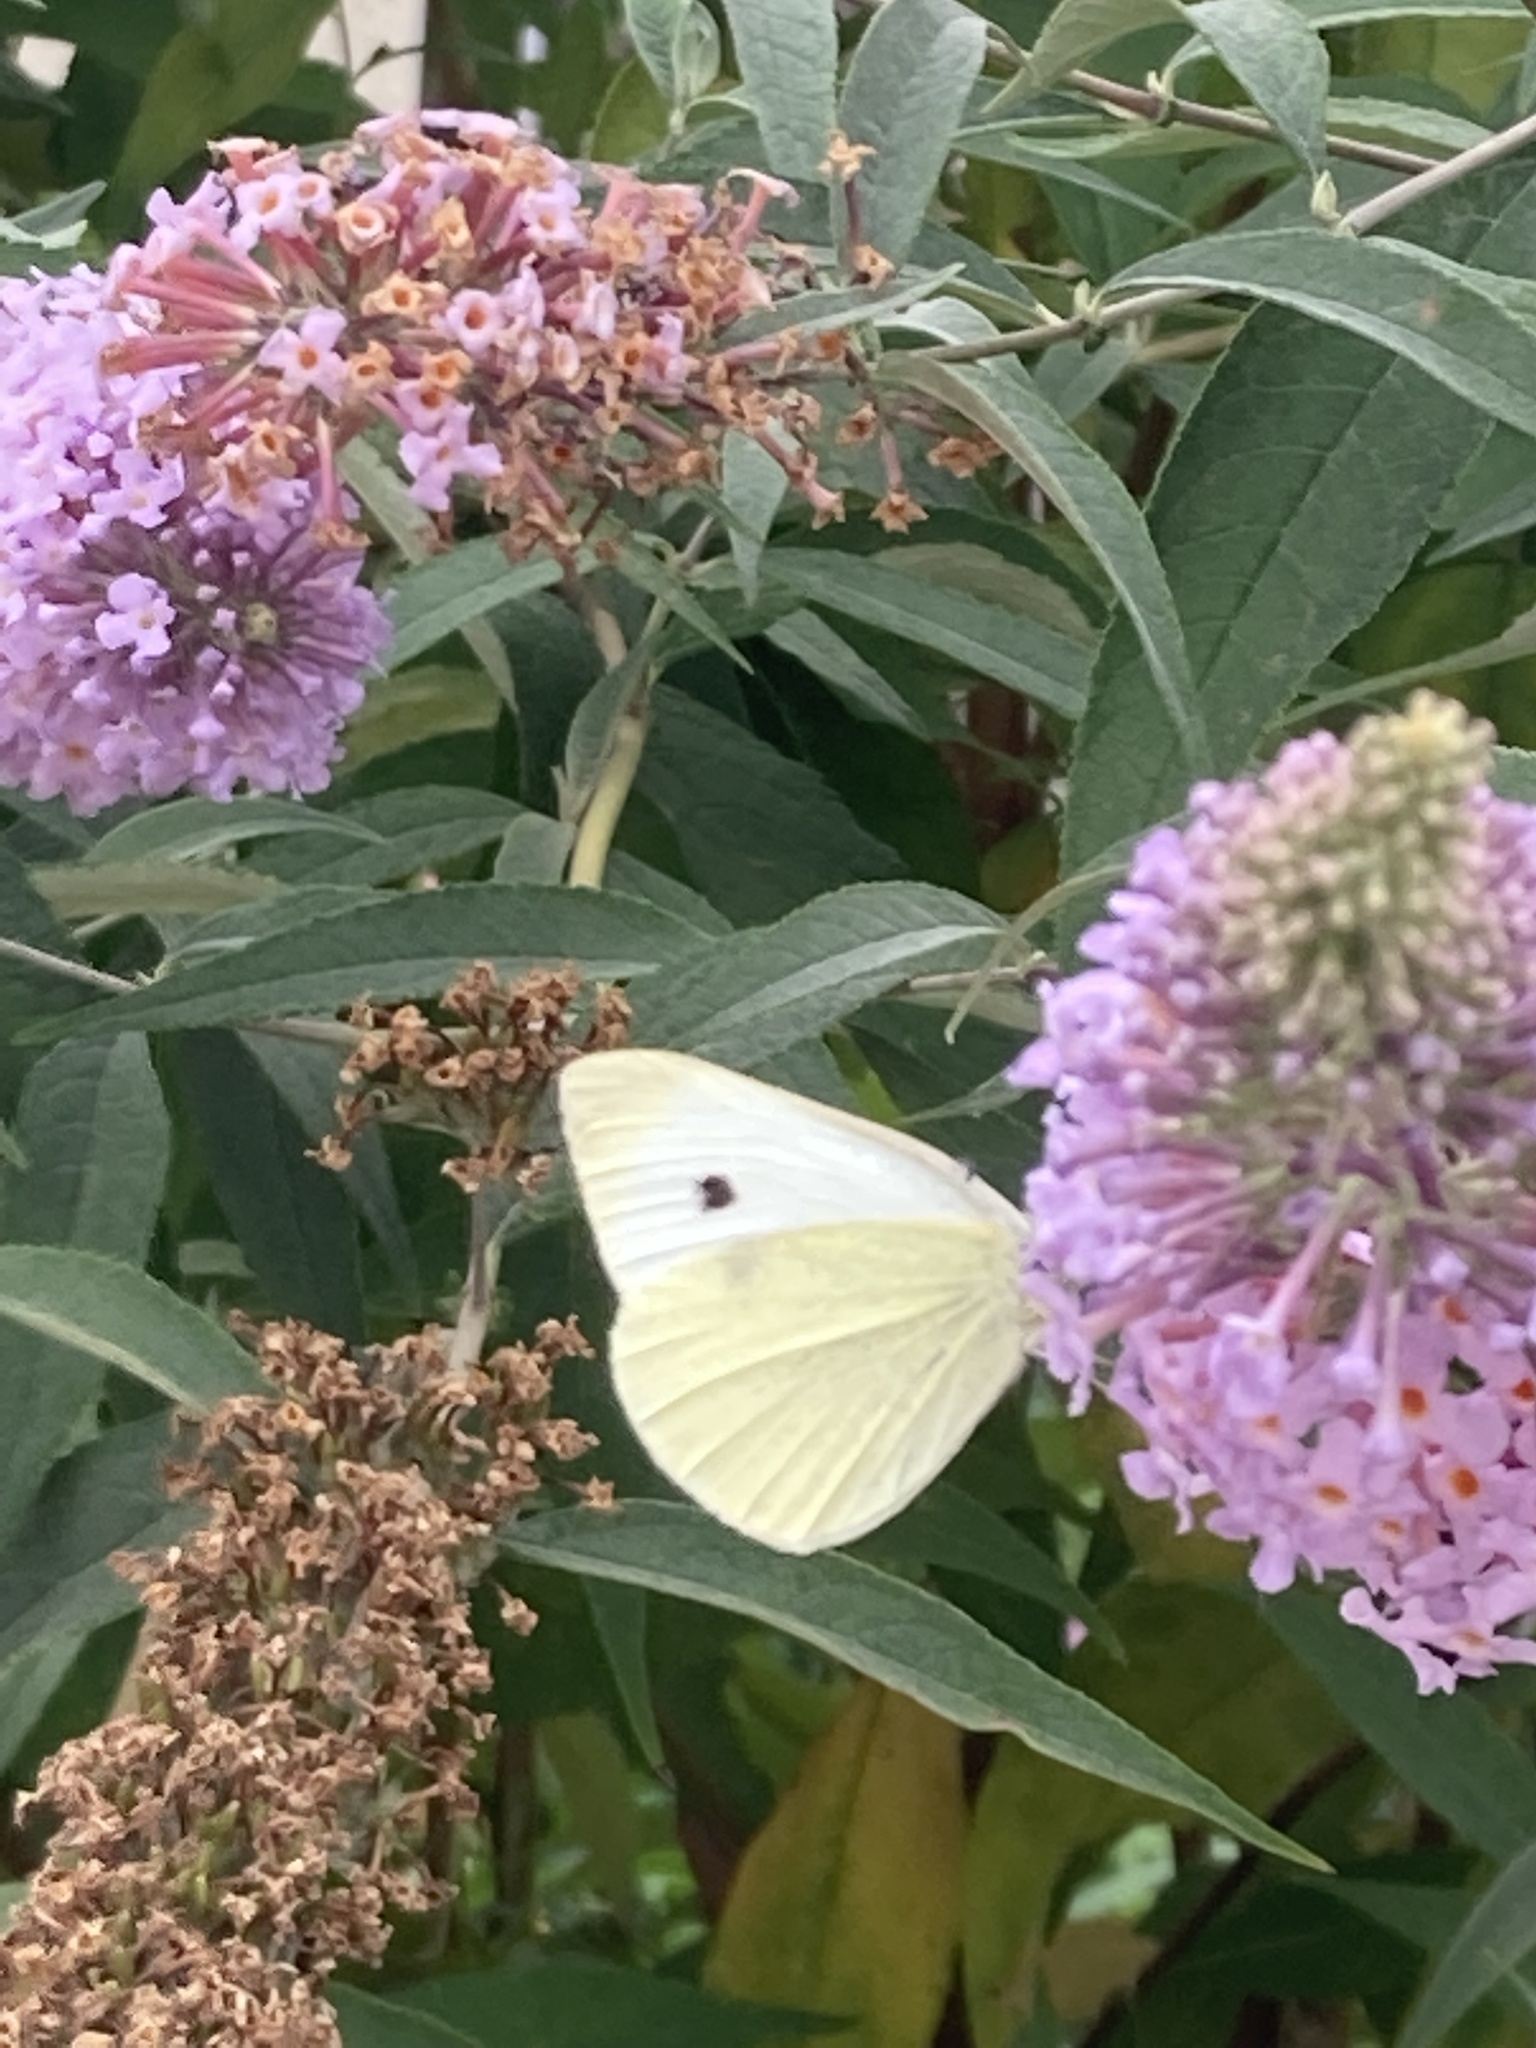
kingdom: Animalia
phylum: Arthropoda
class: Insecta
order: Lepidoptera
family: Pieridae
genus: Pieris
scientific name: Pieris rapae
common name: Small white
